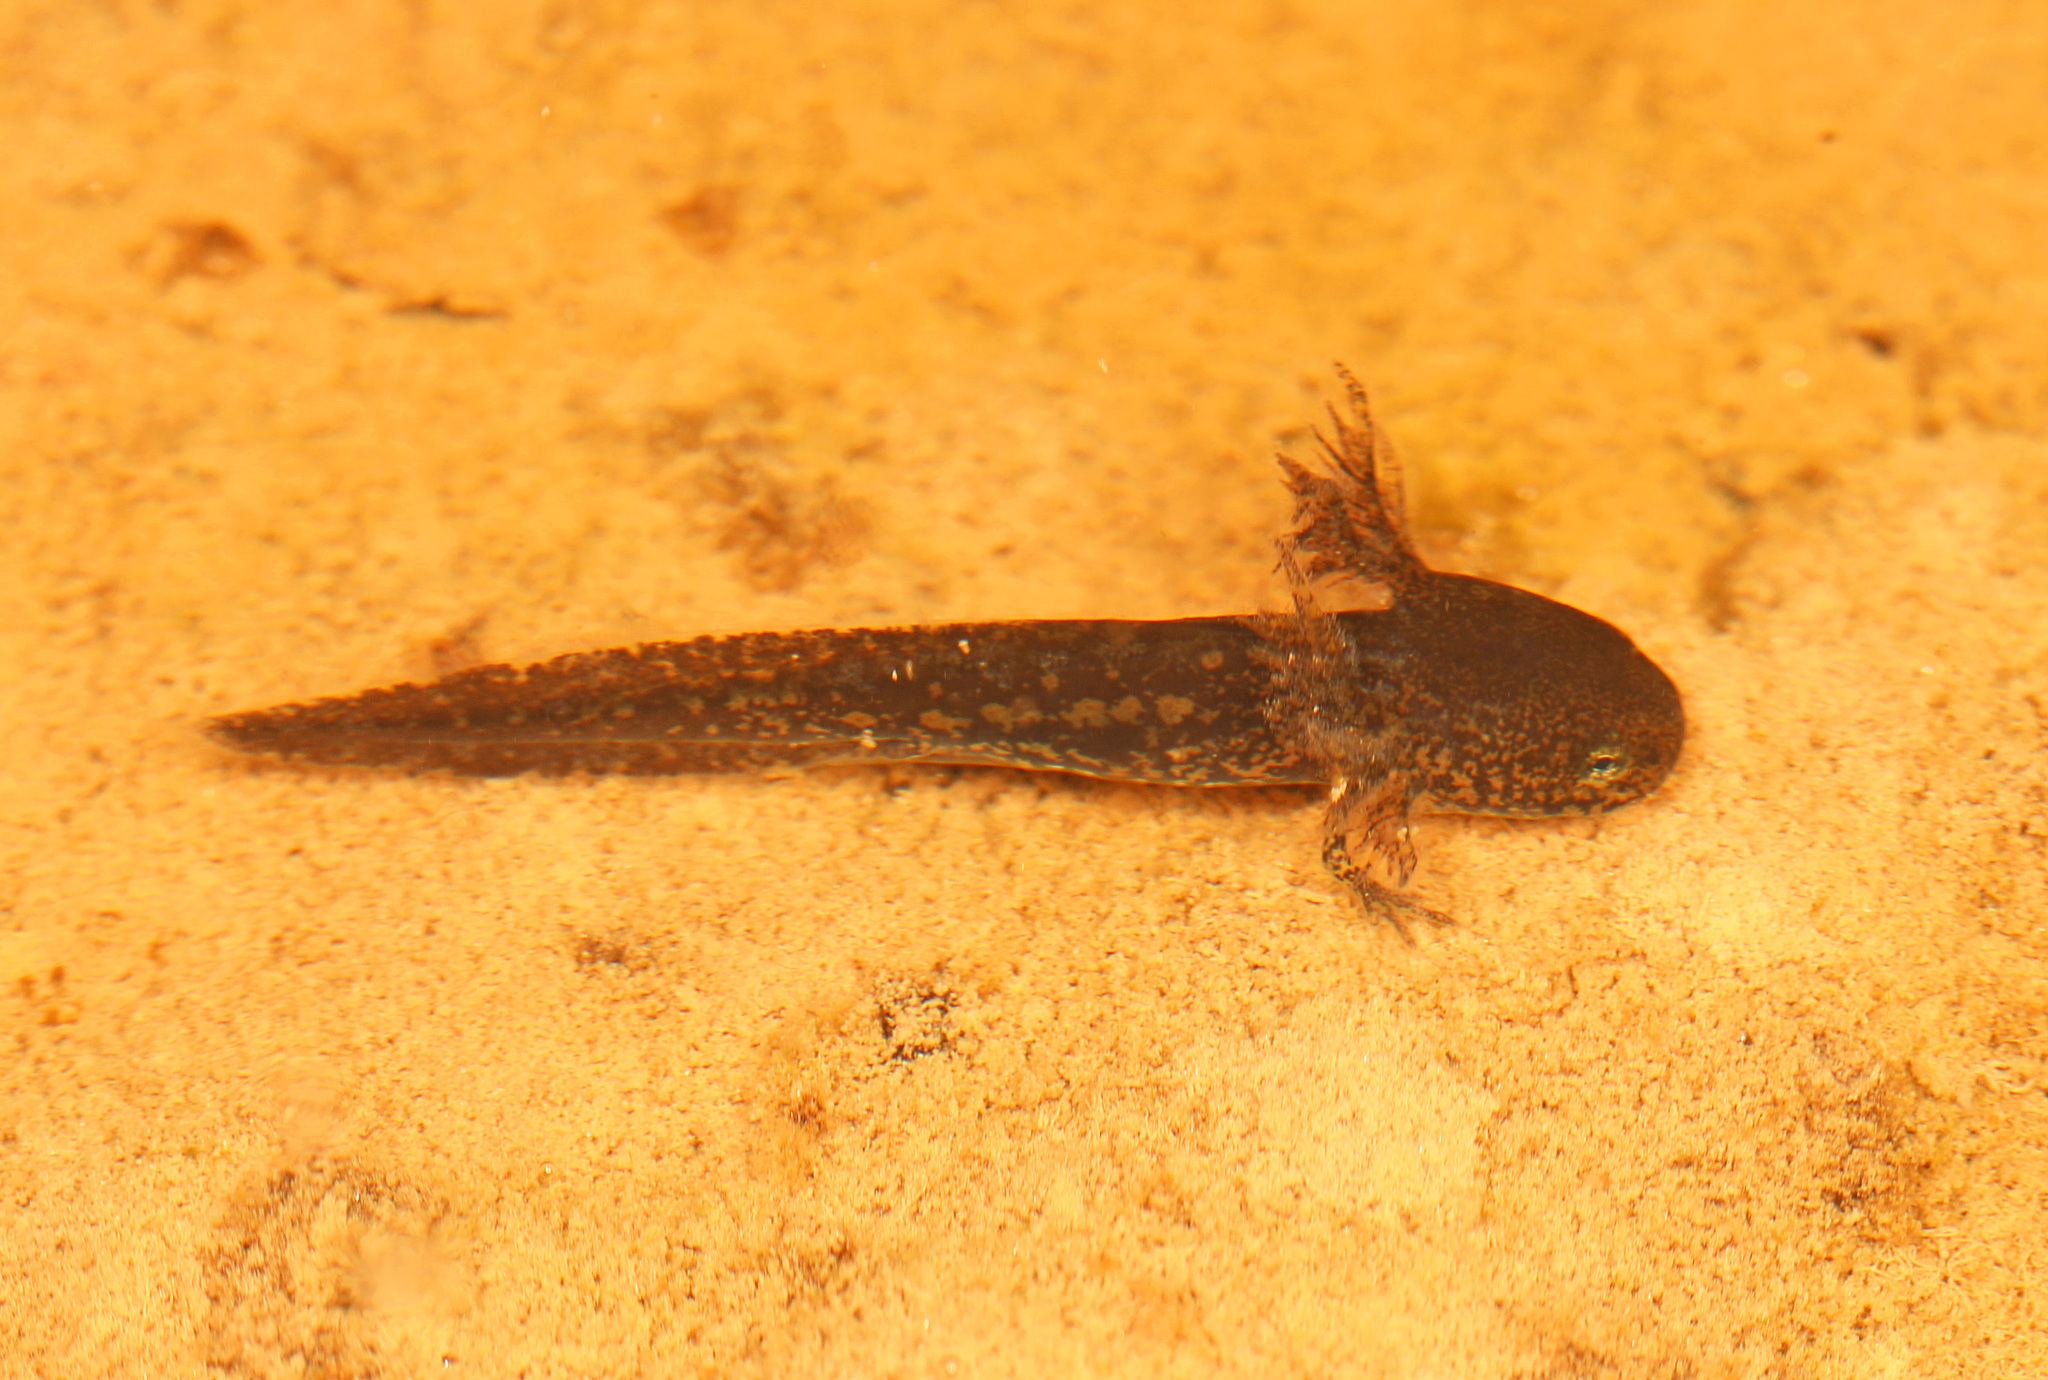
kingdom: Animalia
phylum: Chordata
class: Amphibia
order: Caudata
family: Ambystomatidae
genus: Ambystoma
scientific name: Ambystoma opacum
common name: Marbled salamander
